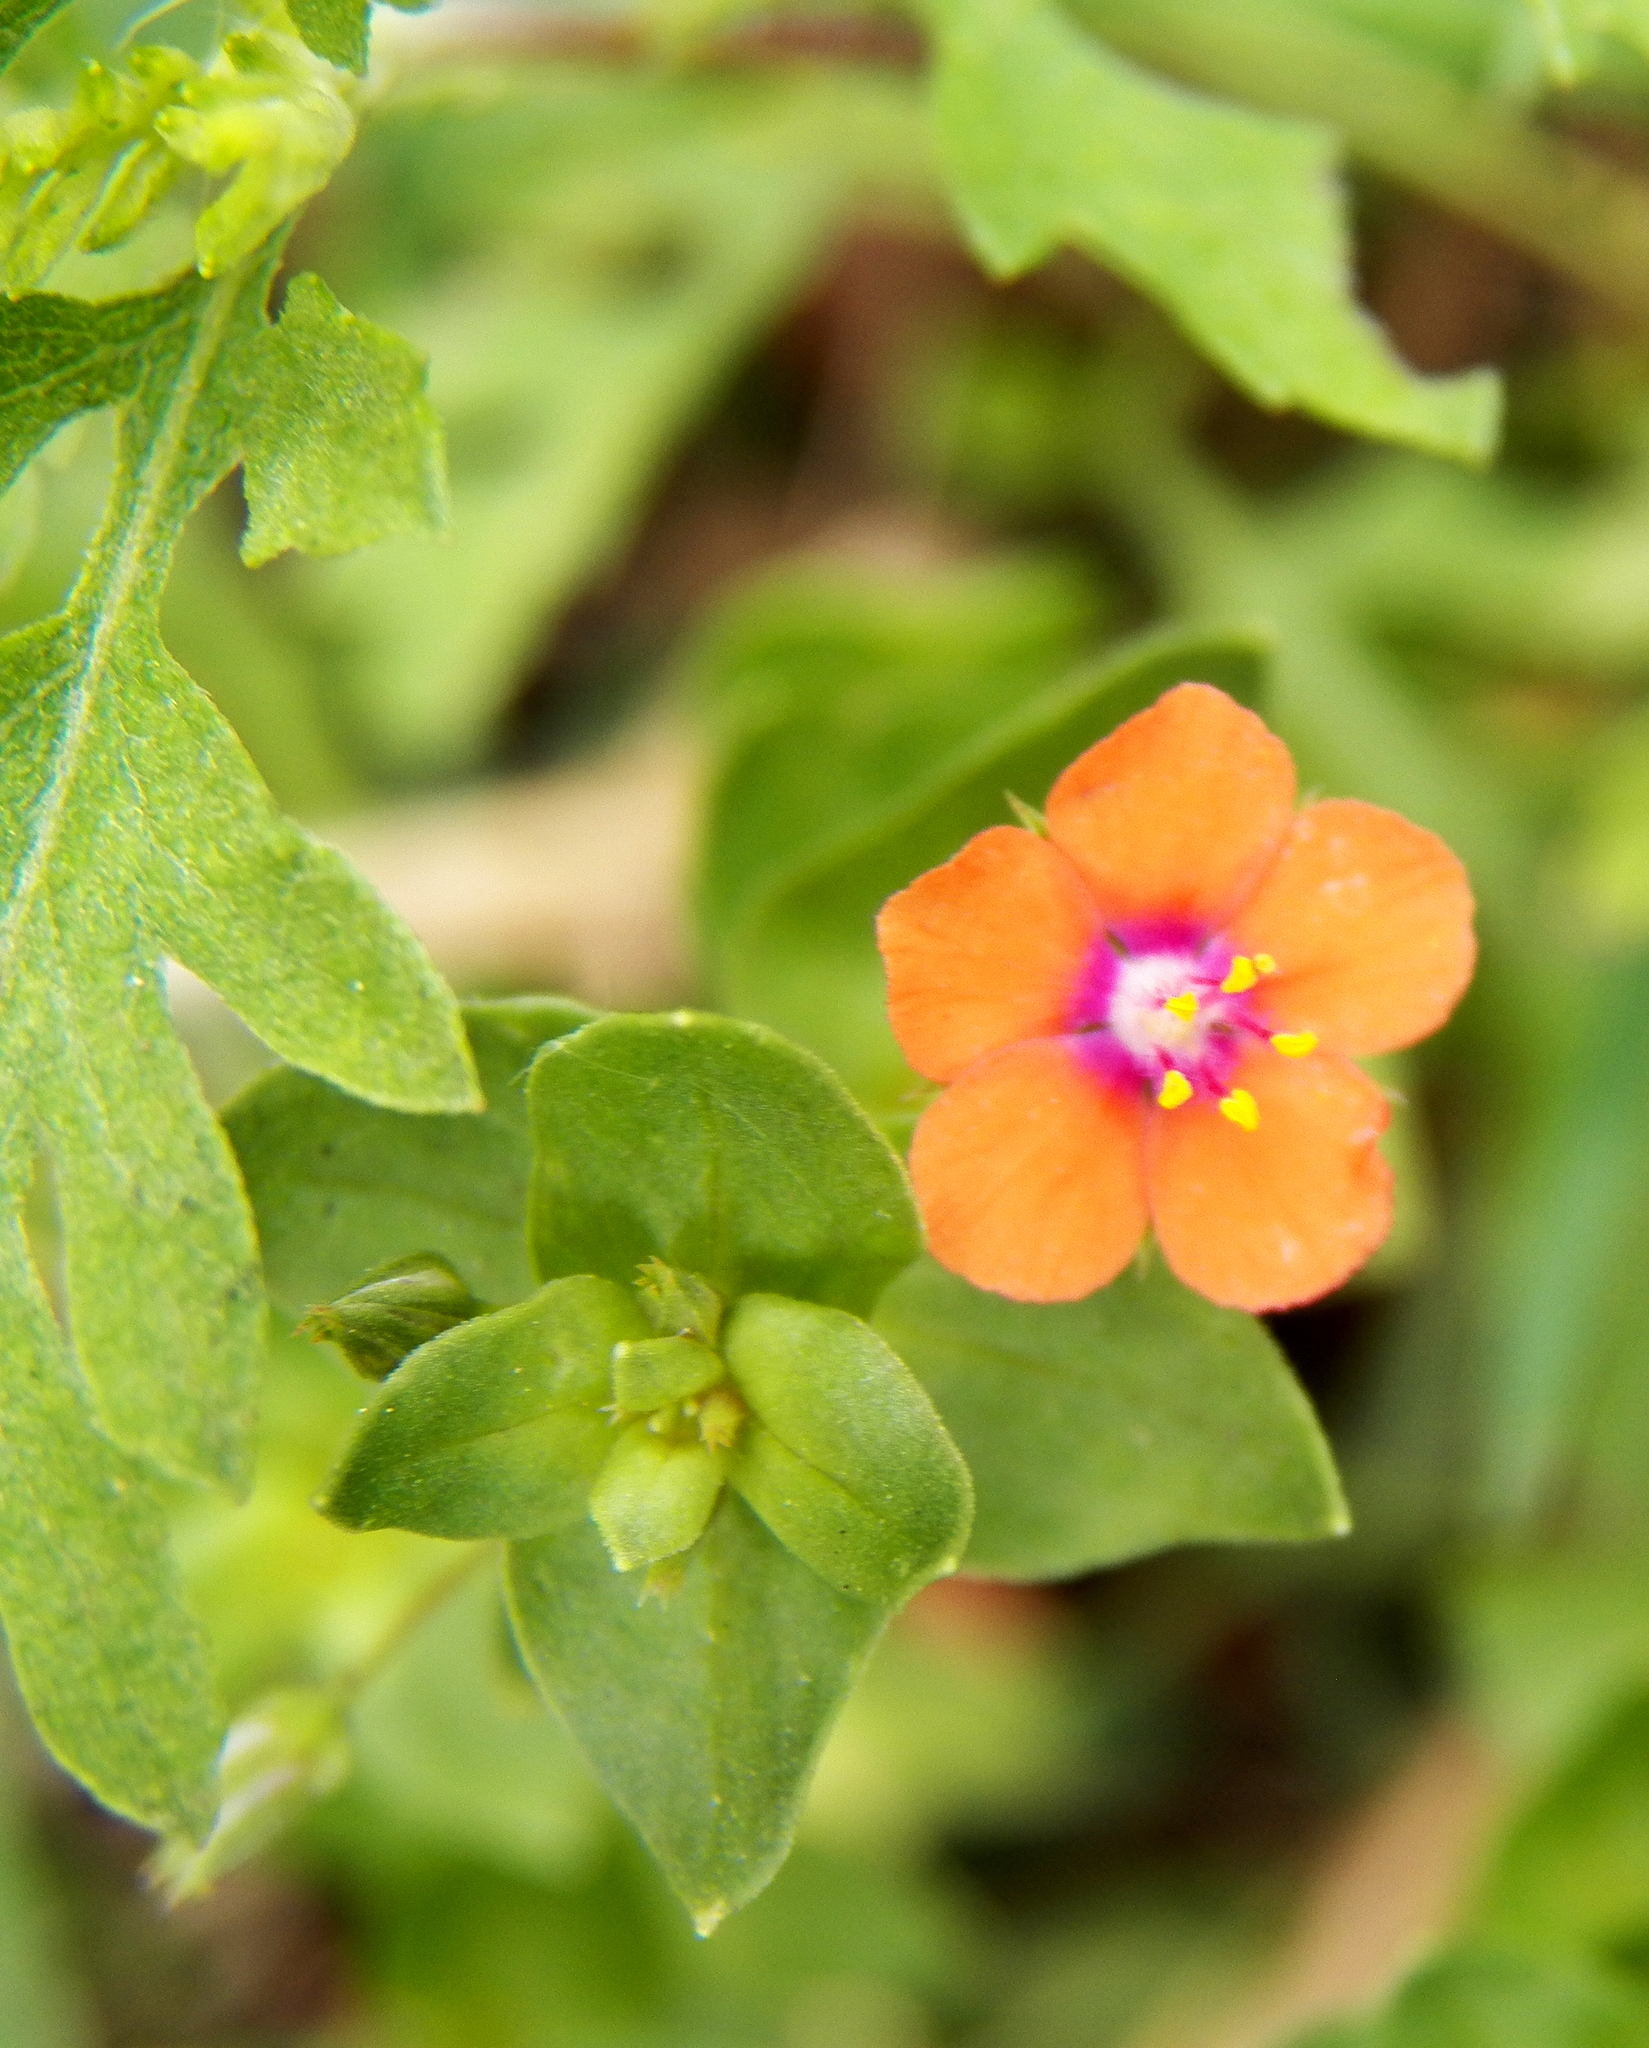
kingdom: Plantae
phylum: Tracheophyta
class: Magnoliopsida
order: Ericales
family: Primulaceae
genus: Lysimachia
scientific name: Lysimachia arvensis
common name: Scarlet pimpernel
